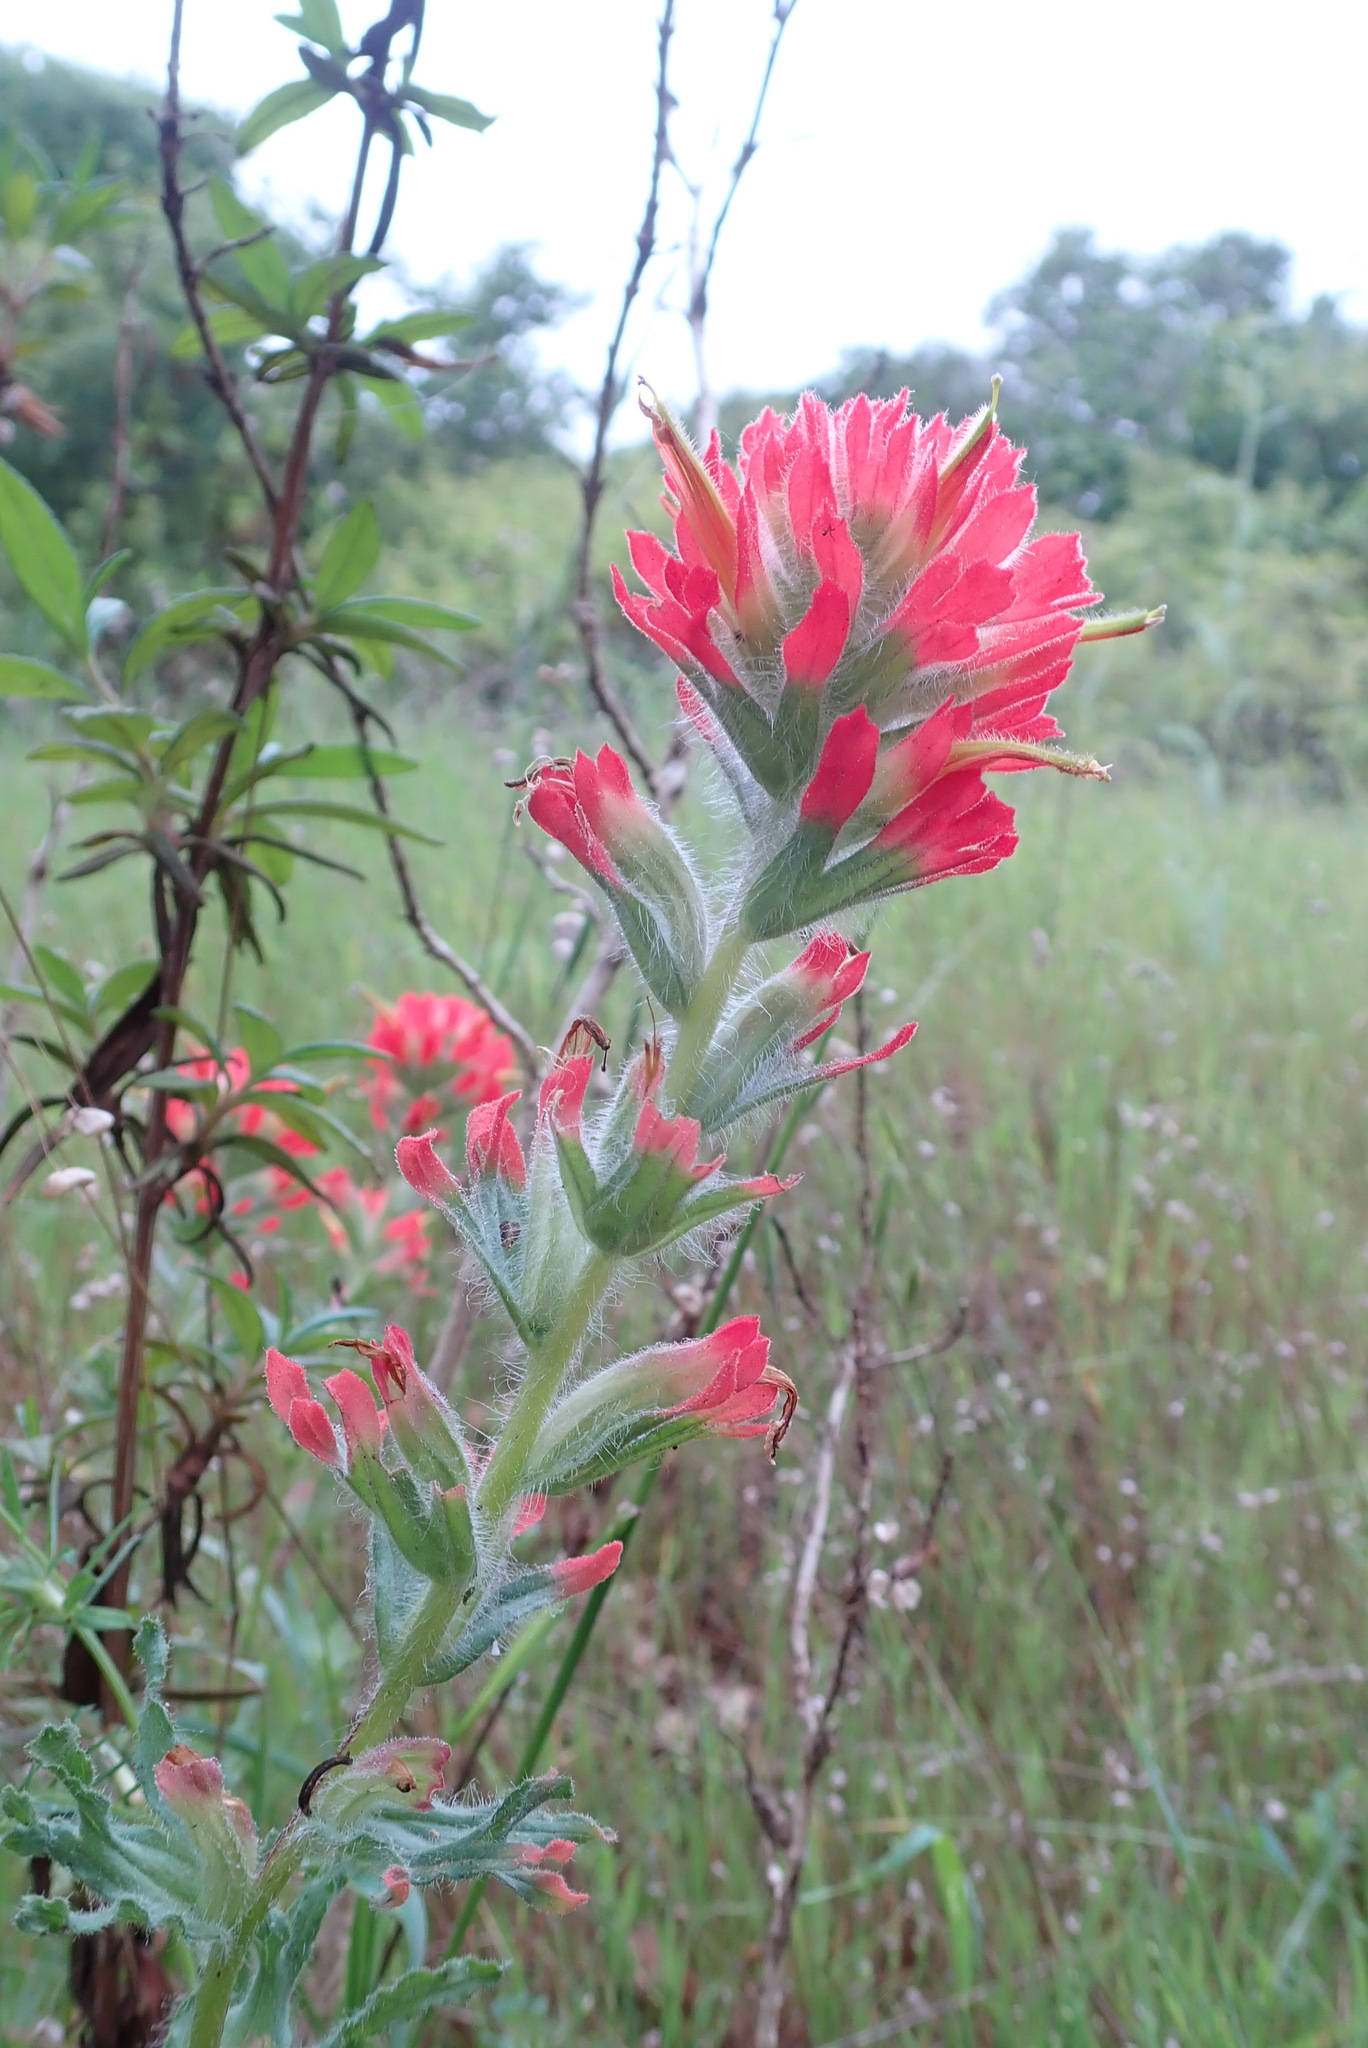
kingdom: Plantae
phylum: Tracheophyta
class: Magnoliopsida
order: Lamiales
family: Orobanchaceae
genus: Castilleja
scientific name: Castilleja affinis
